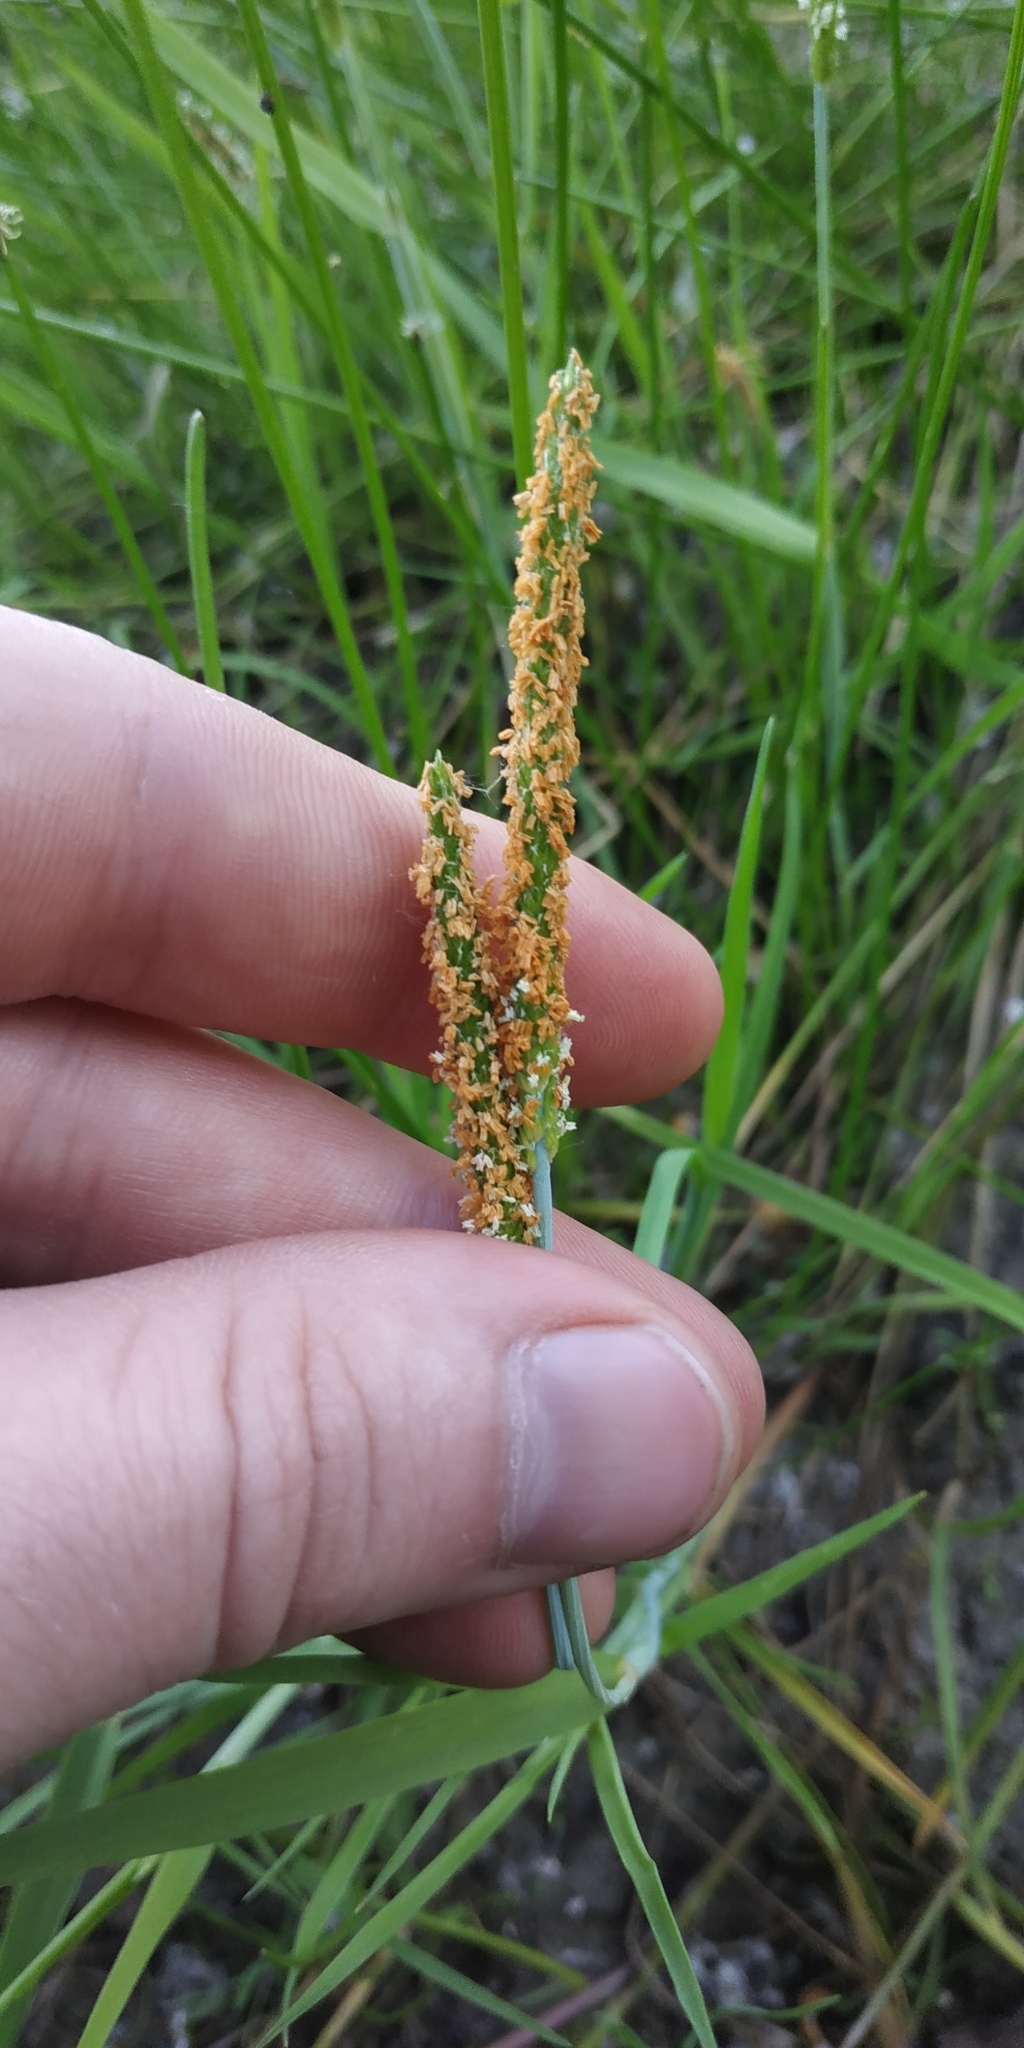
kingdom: Plantae
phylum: Tracheophyta
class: Liliopsida
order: Poales
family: Poaceae
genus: Alopecurus
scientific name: Alopecurus aequalis
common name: Orange foxtail
